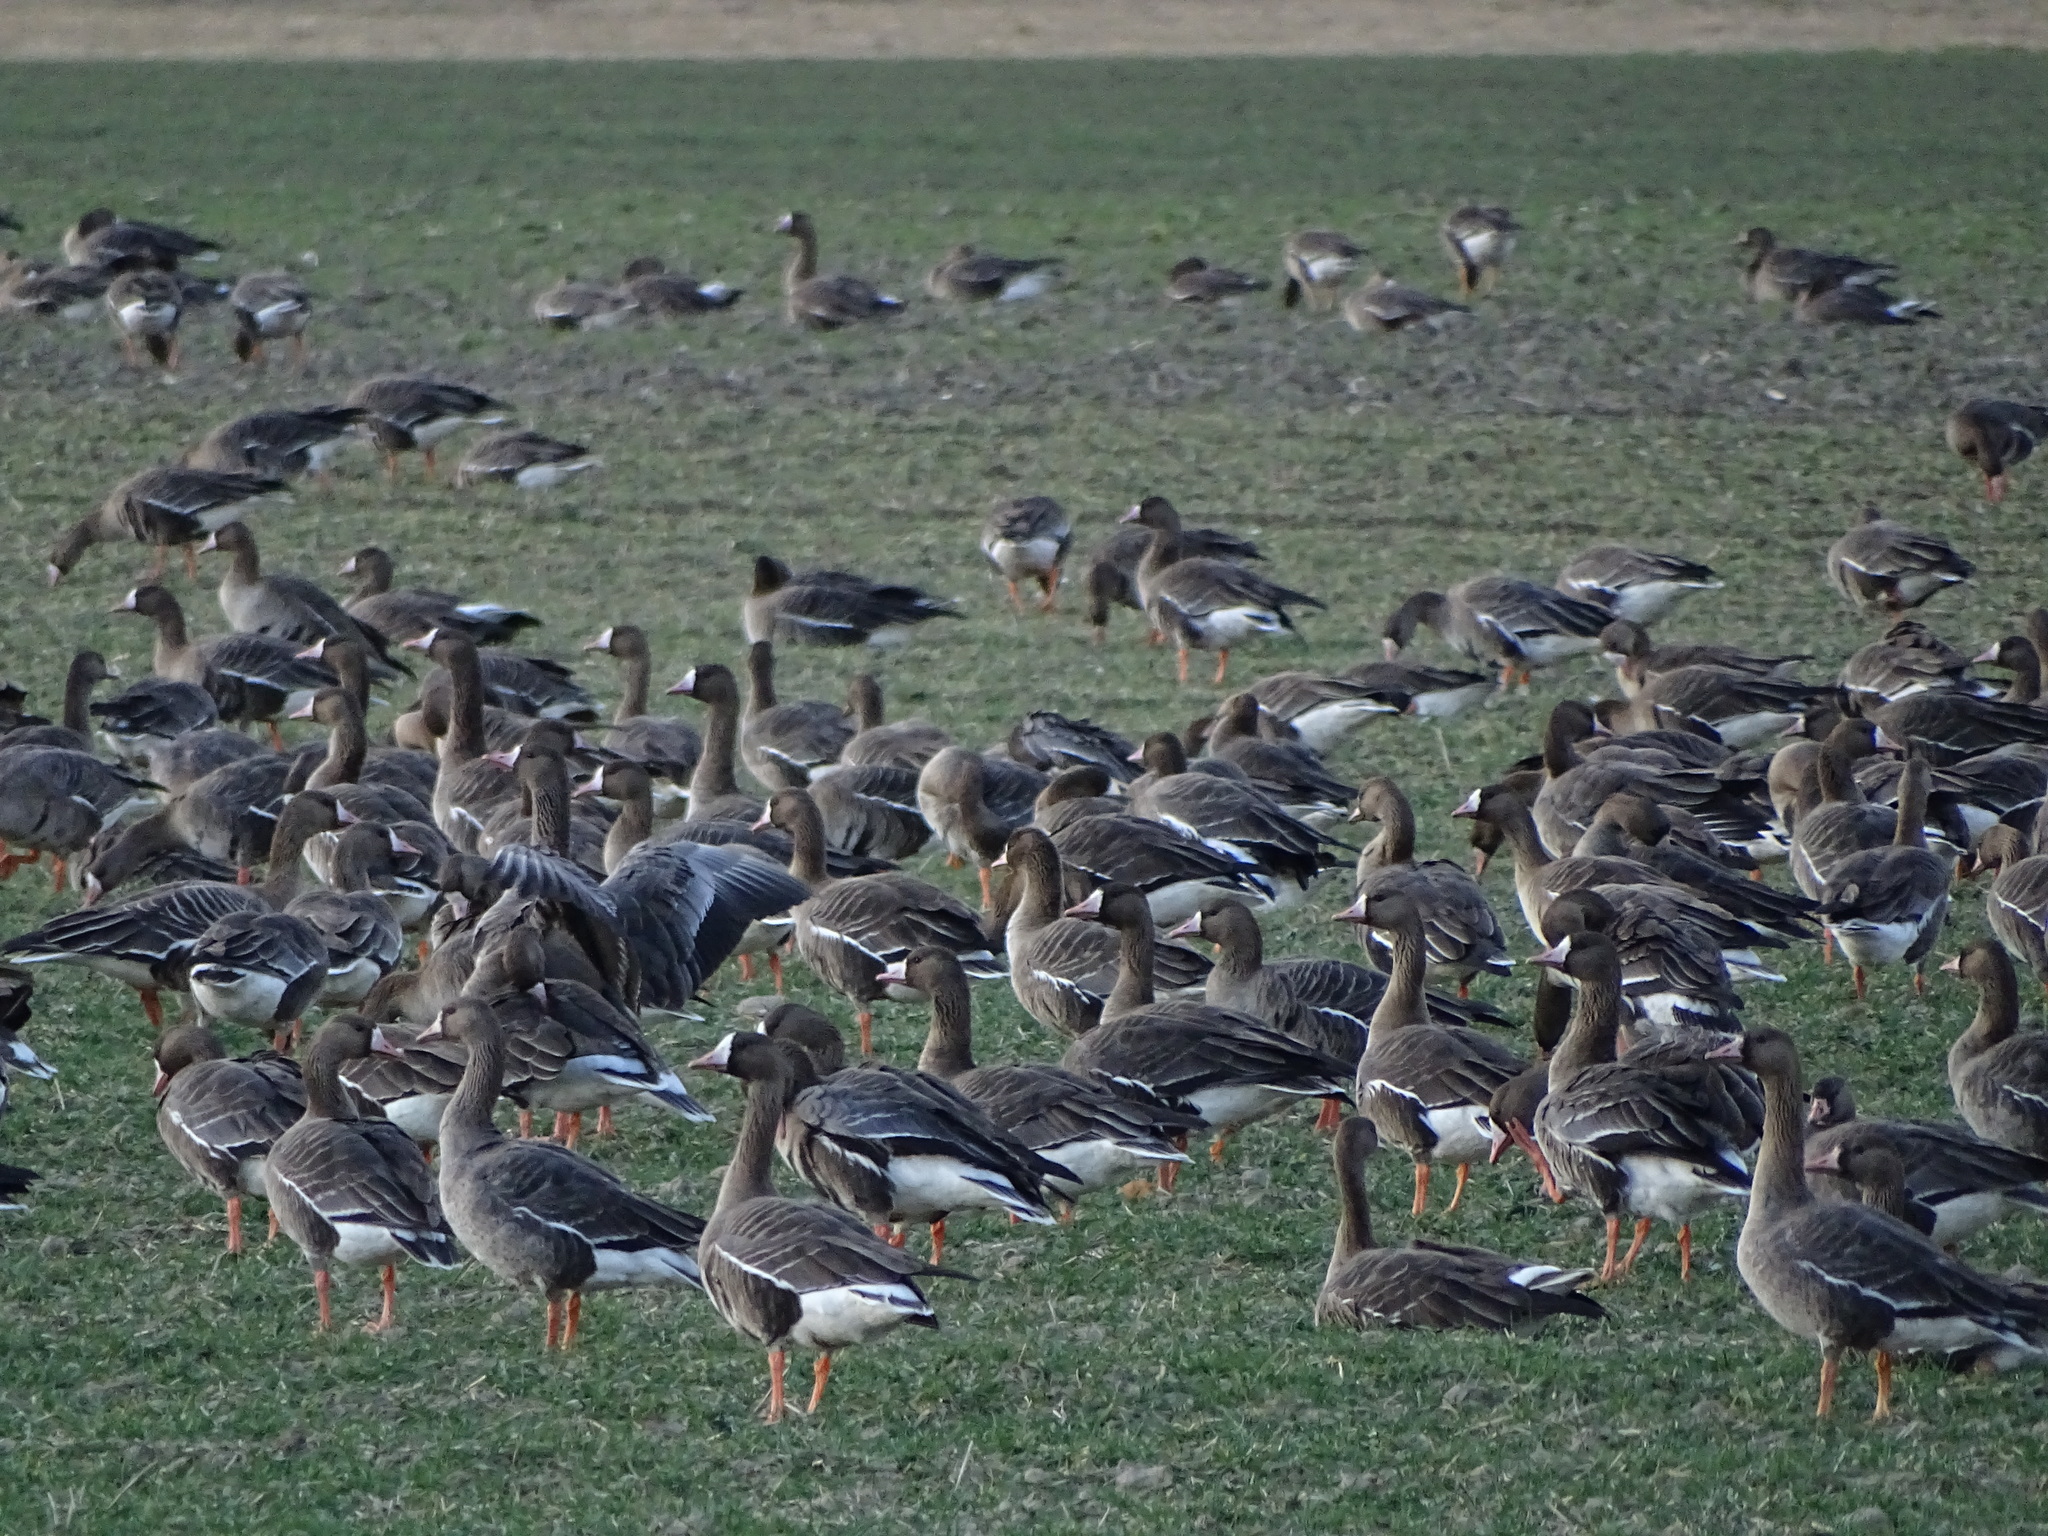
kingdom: Animalia
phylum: Chordata
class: Aves
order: Anseriformes
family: Anatidae
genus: Anser
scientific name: Anser albifrons
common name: Greater white-fronted goose
